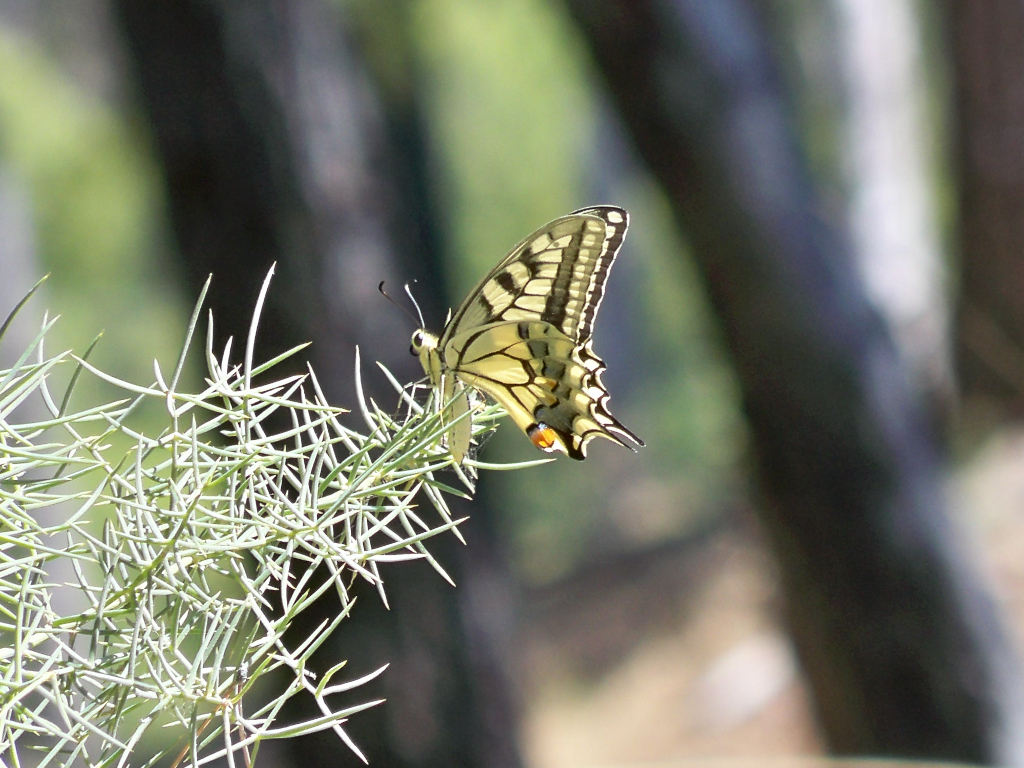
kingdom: Animalia
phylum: Arthropoda
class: Insecta
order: Lepidoptera
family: Papilionidae
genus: Papilio
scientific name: Papilio machaon
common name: Swallowtail
